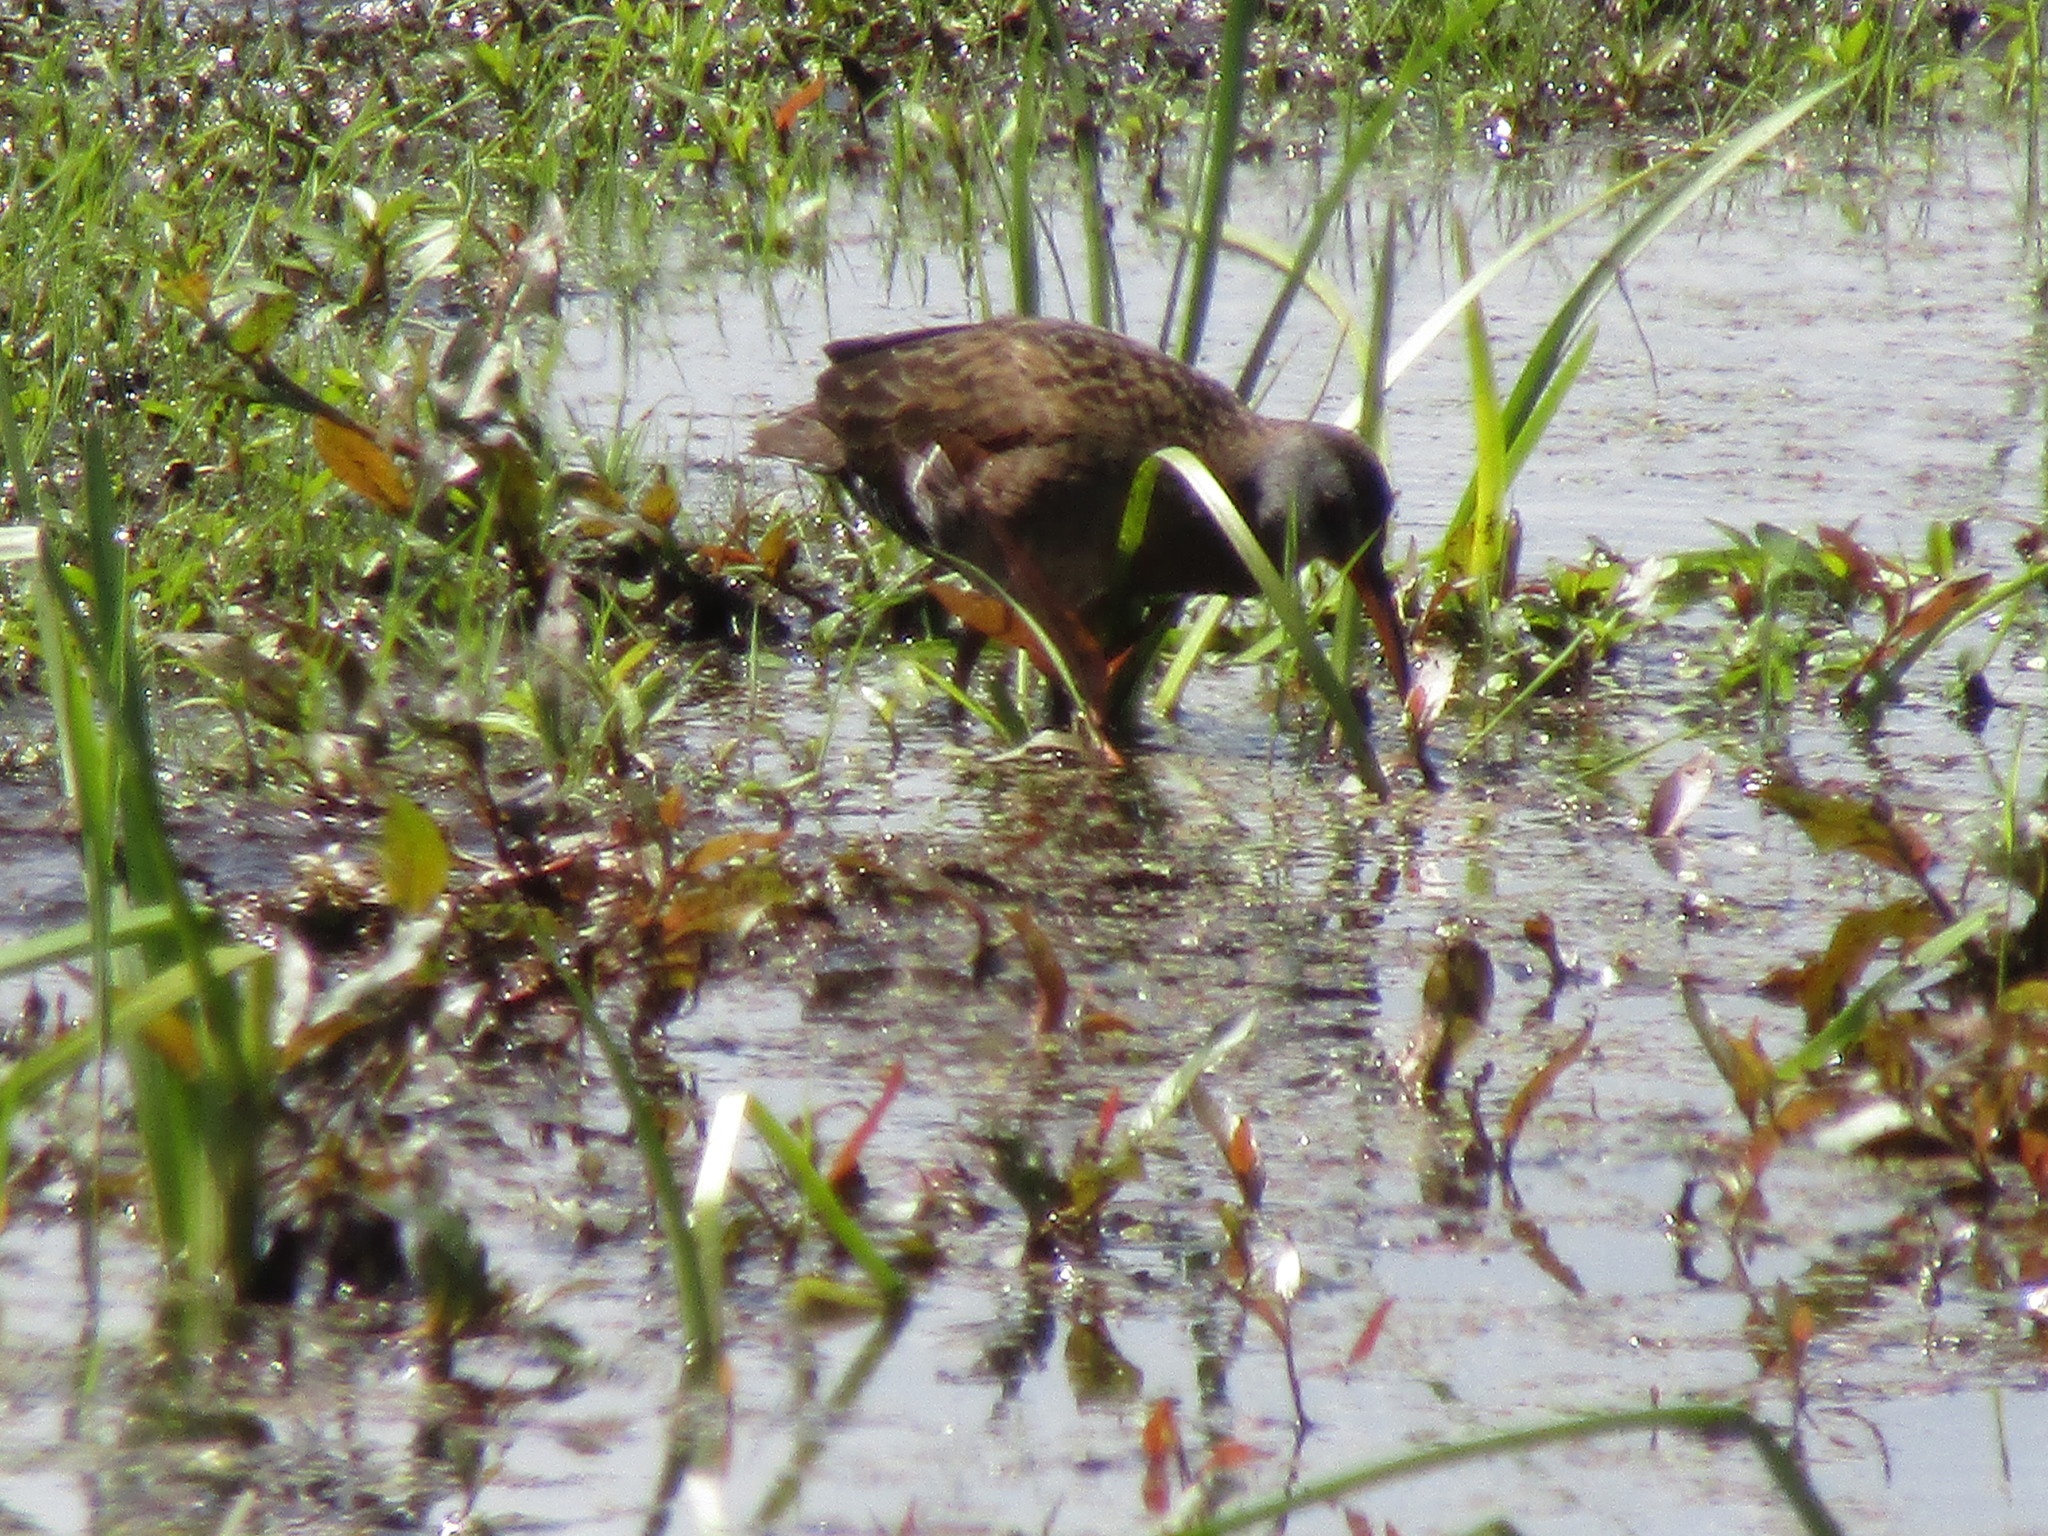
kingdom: Animalia
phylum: Chordata
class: Aves
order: Gruiformes
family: Rallidae
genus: Rallus
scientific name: Rallus limicola
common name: Virginia rail
